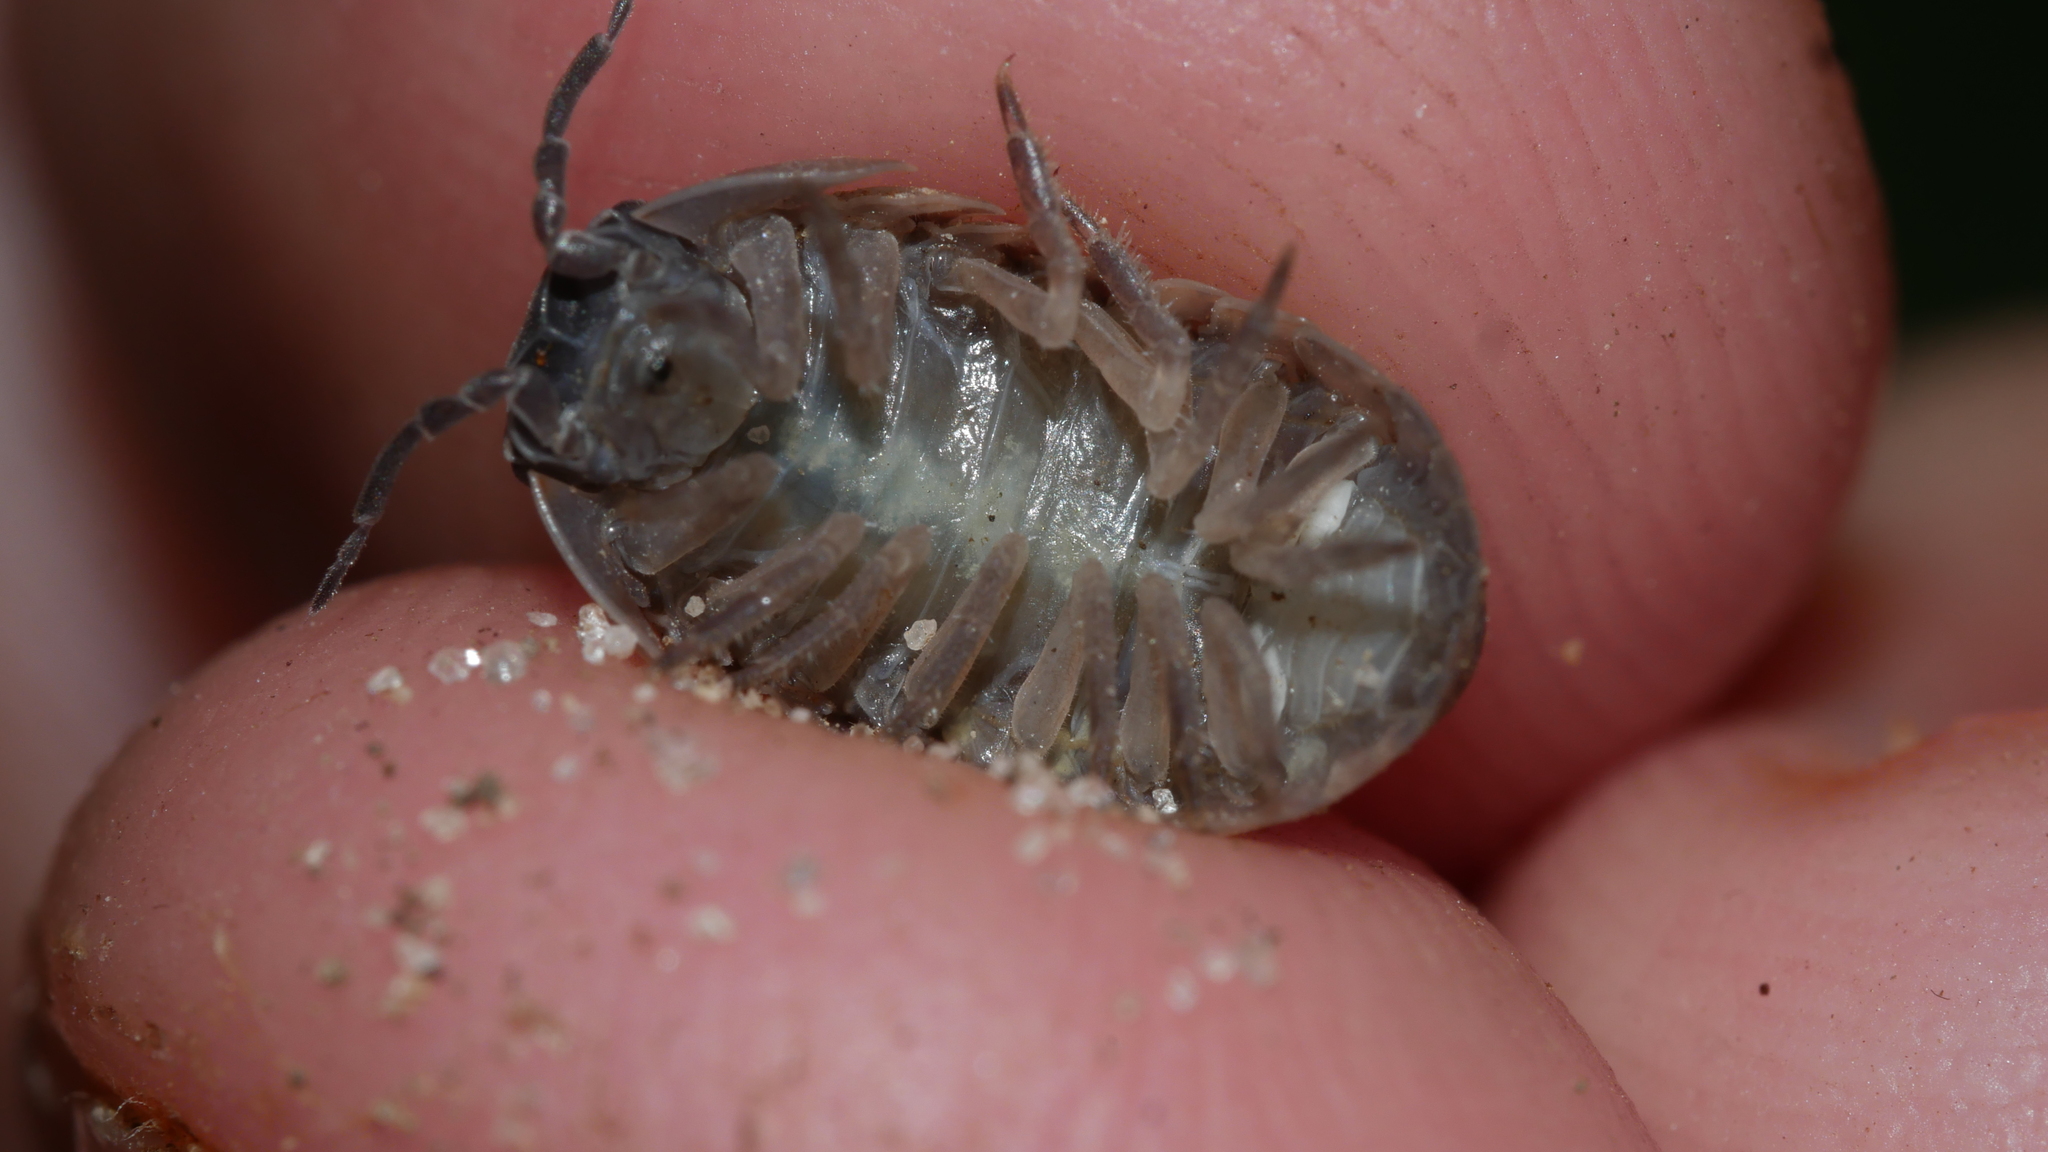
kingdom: Animalia
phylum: Arthropoda
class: Malacostraca
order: Isopoda
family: Armadillidiidae
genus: Armadillidium
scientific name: Armadillidium vulgare
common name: Common pill woodlouse
